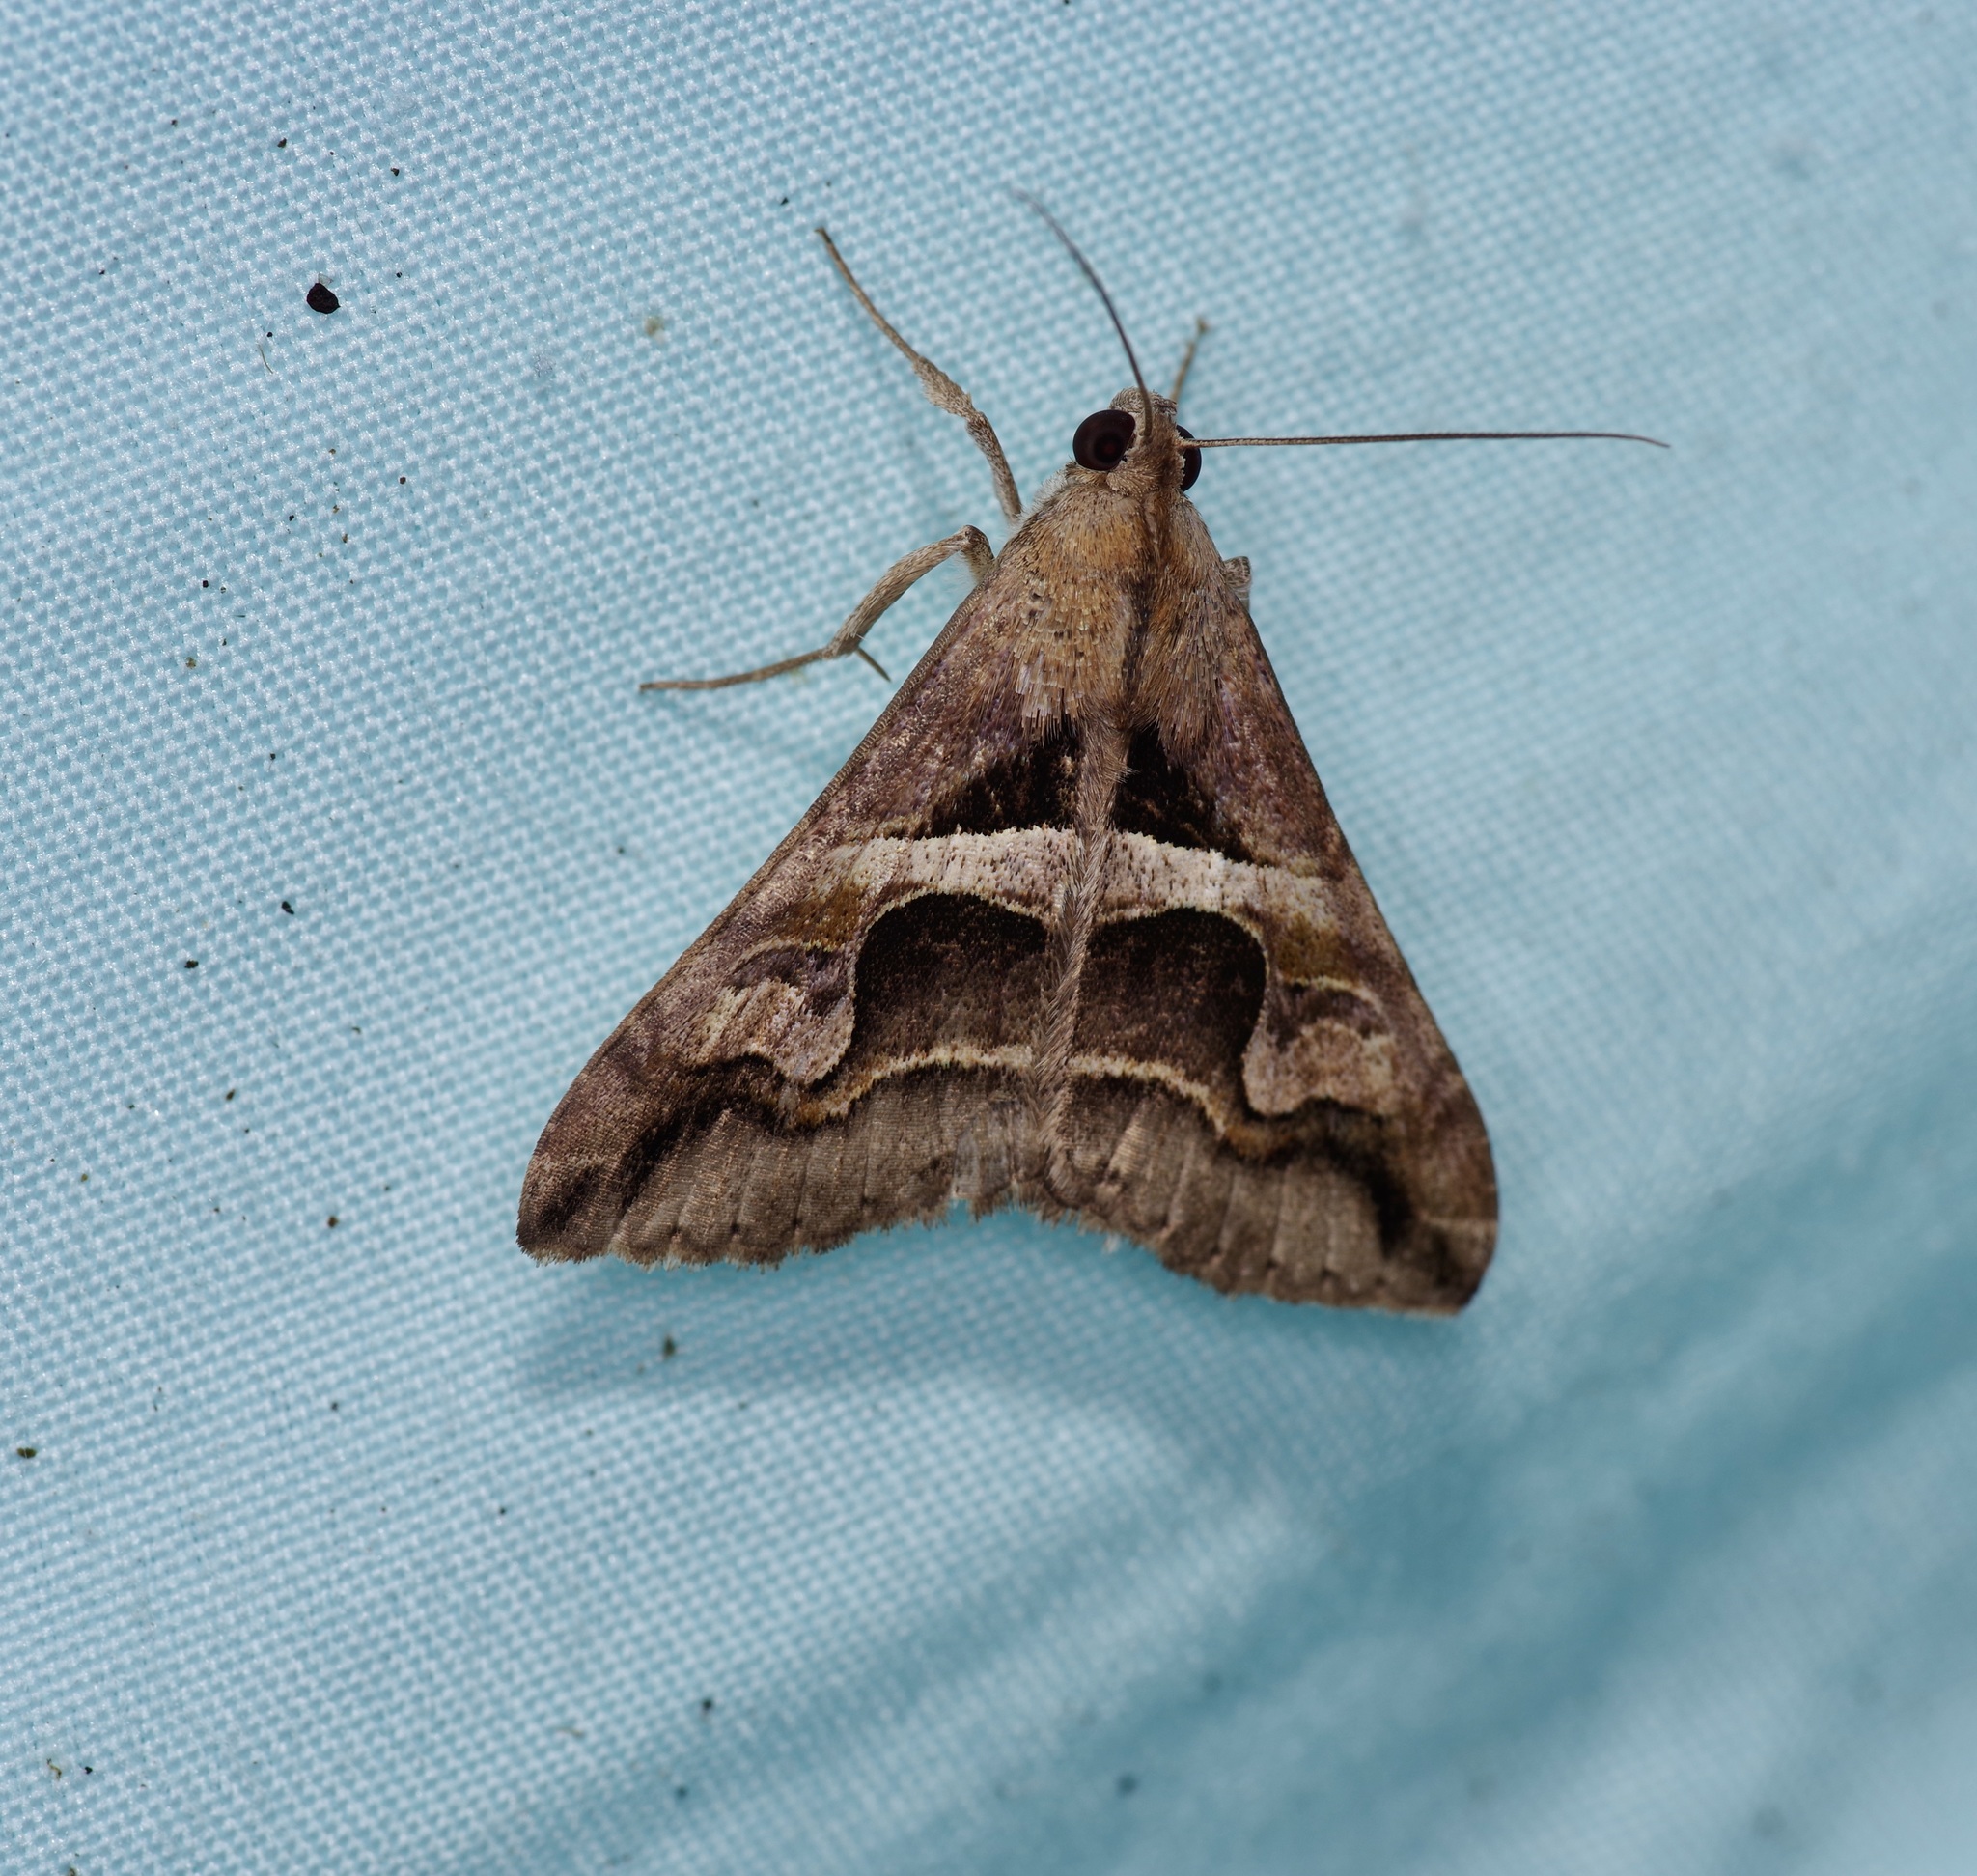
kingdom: Animalia
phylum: Arthropoda
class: Insecta
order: Lepidoptera
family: Erebidae
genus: Melipotis
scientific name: Melipotis cellaris
